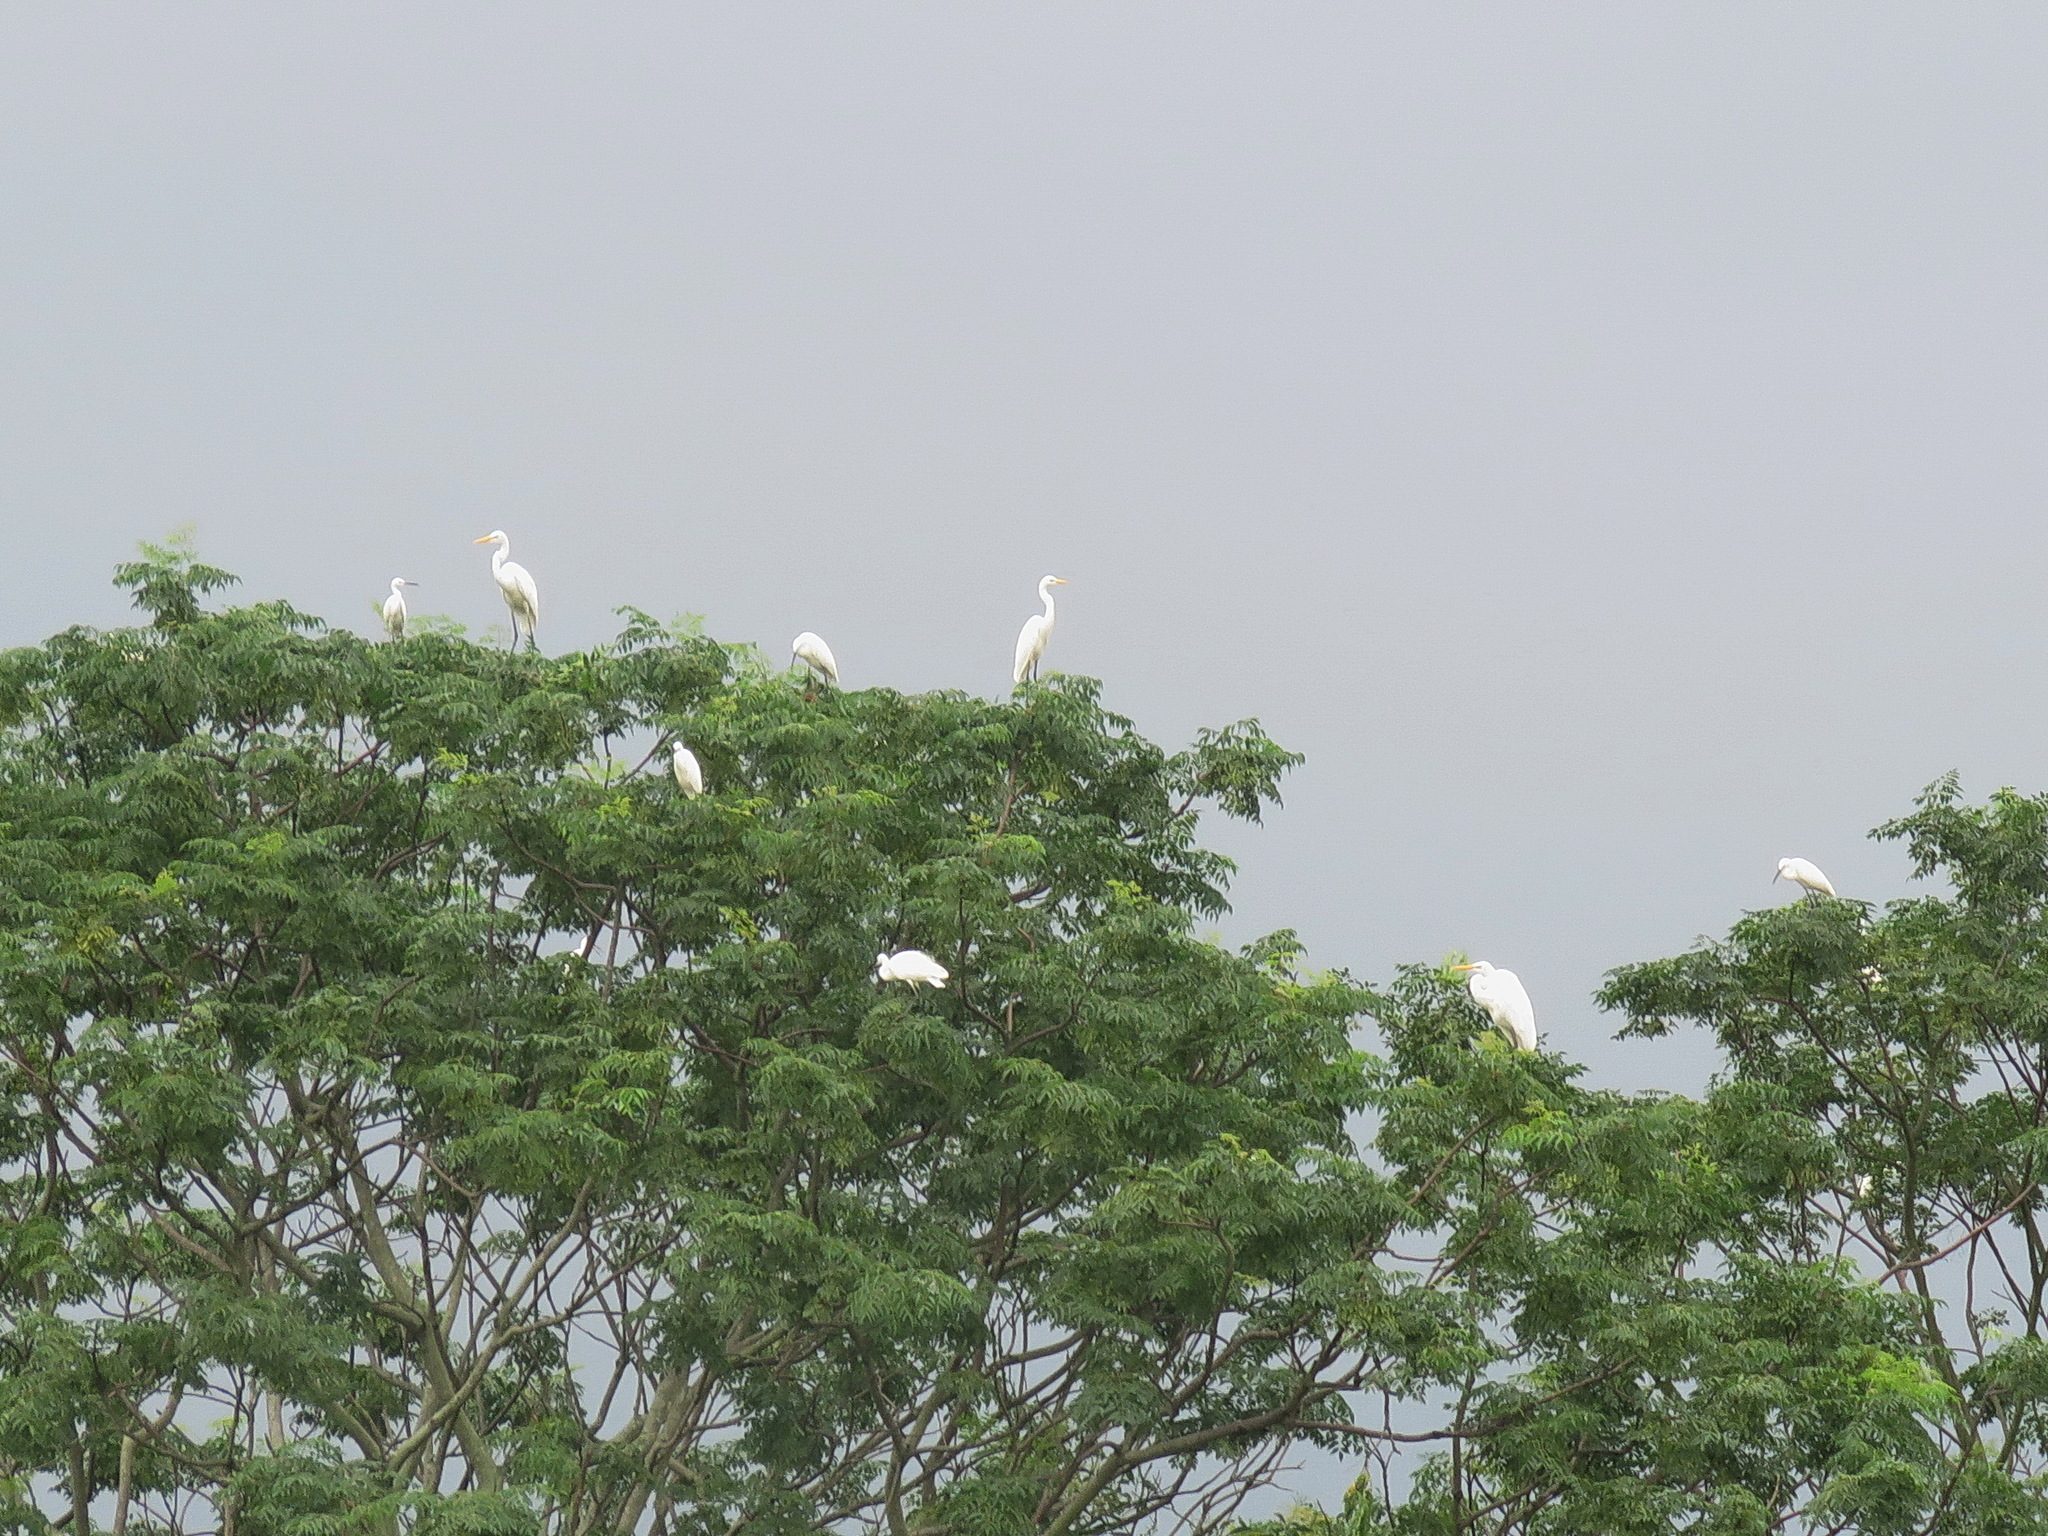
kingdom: Animalia
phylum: Chordata
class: Aves
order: Pelecaniformes
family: Ardeidae
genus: Ardea
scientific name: Ardea alba
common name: Great egret
